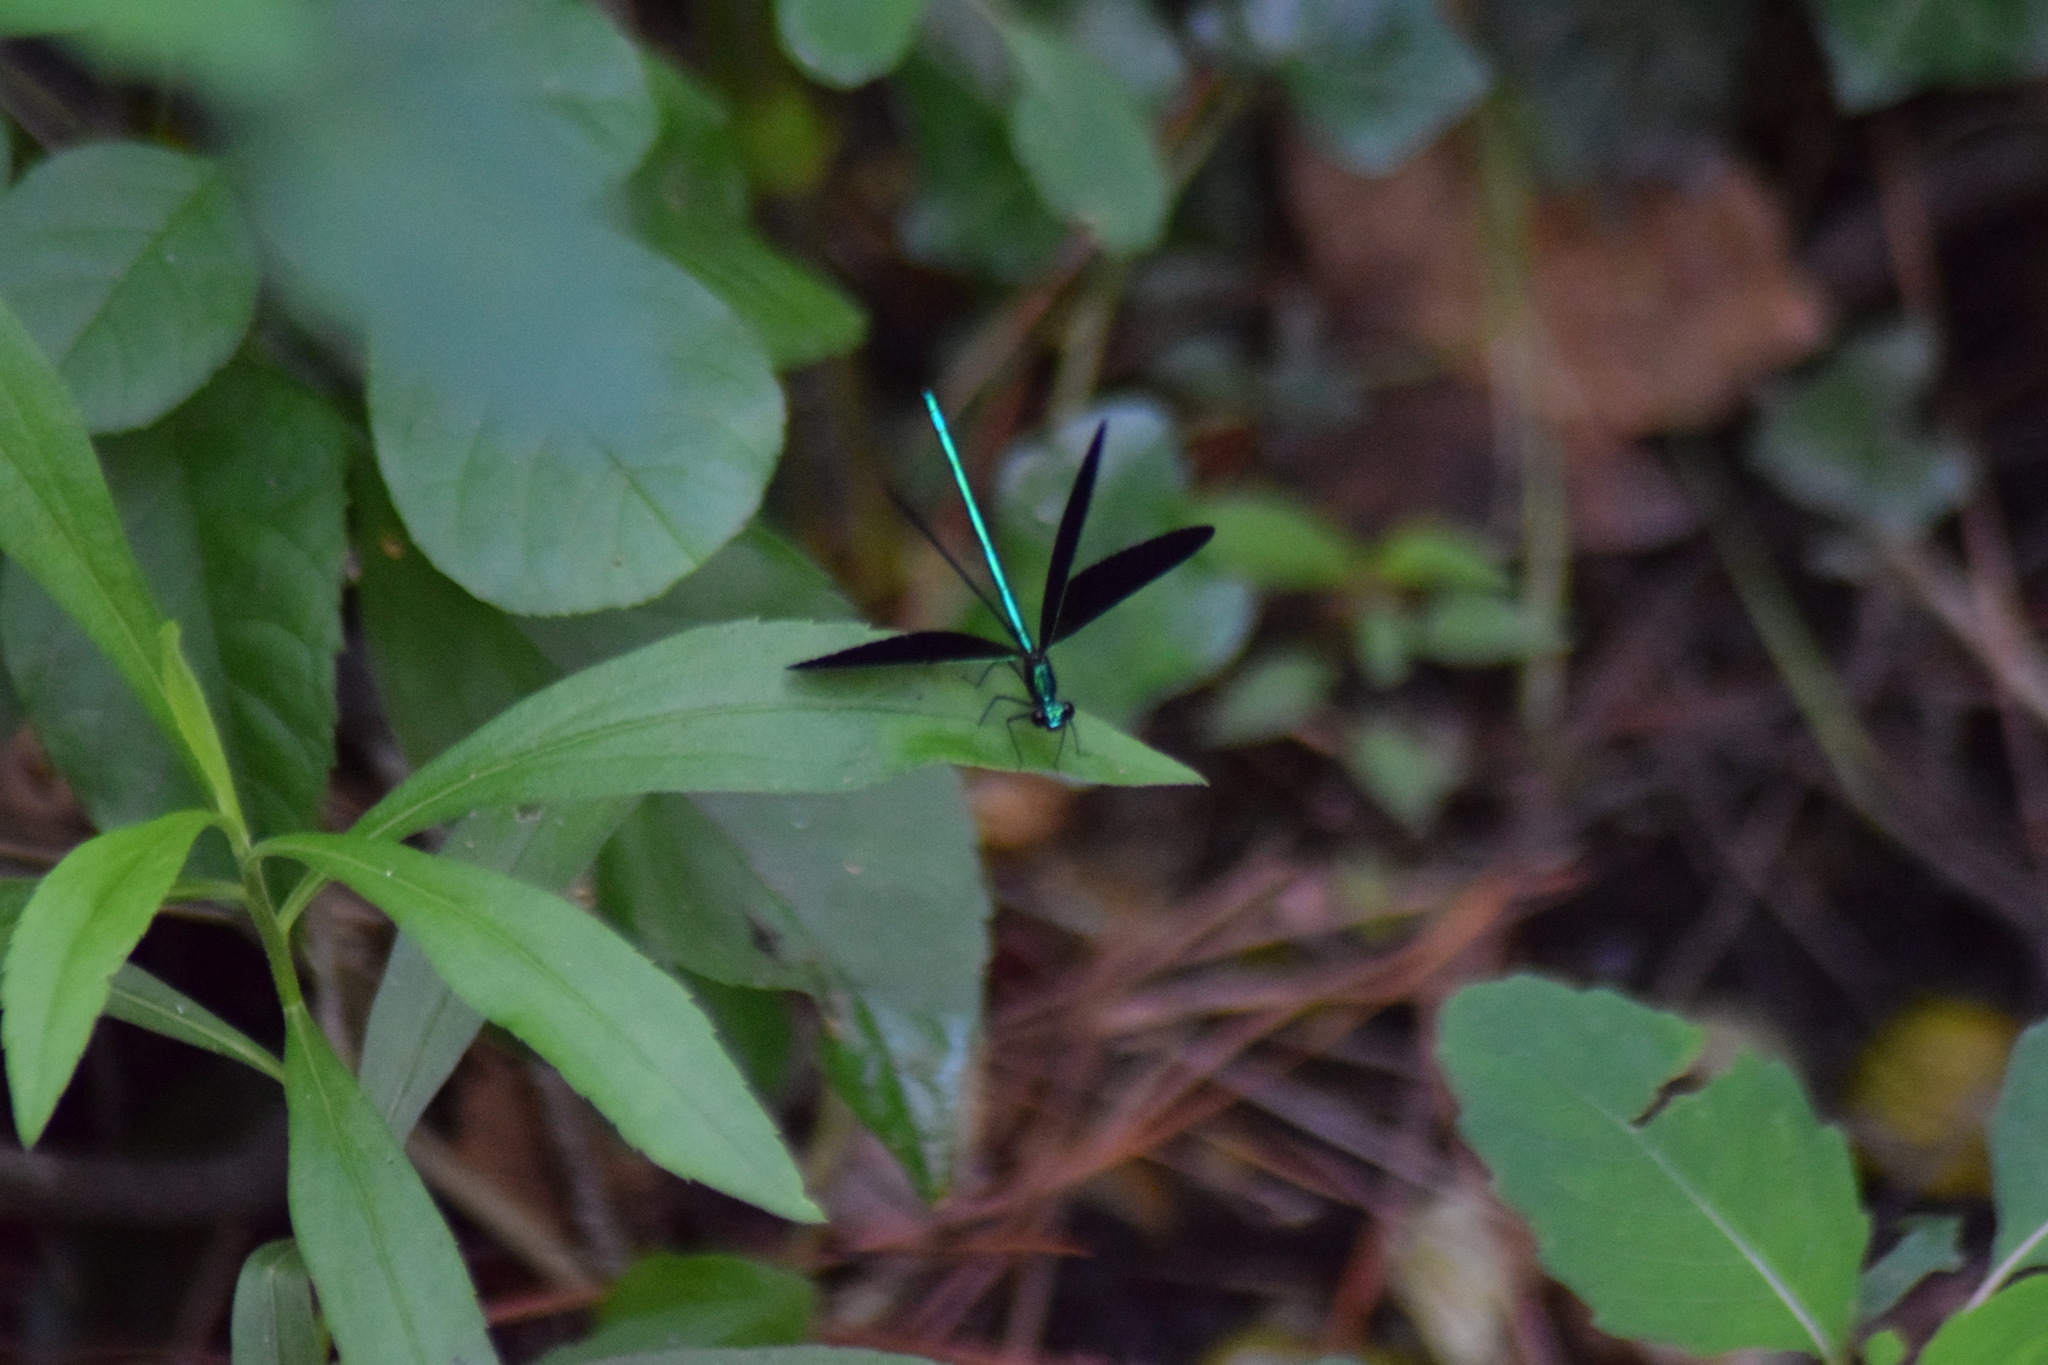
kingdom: Animalia
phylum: Arthropoda
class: Insecta
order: Odonata
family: Calopterygidae
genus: Calopteryx
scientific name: Calopteryx maculata
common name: Ebony jewelwing
